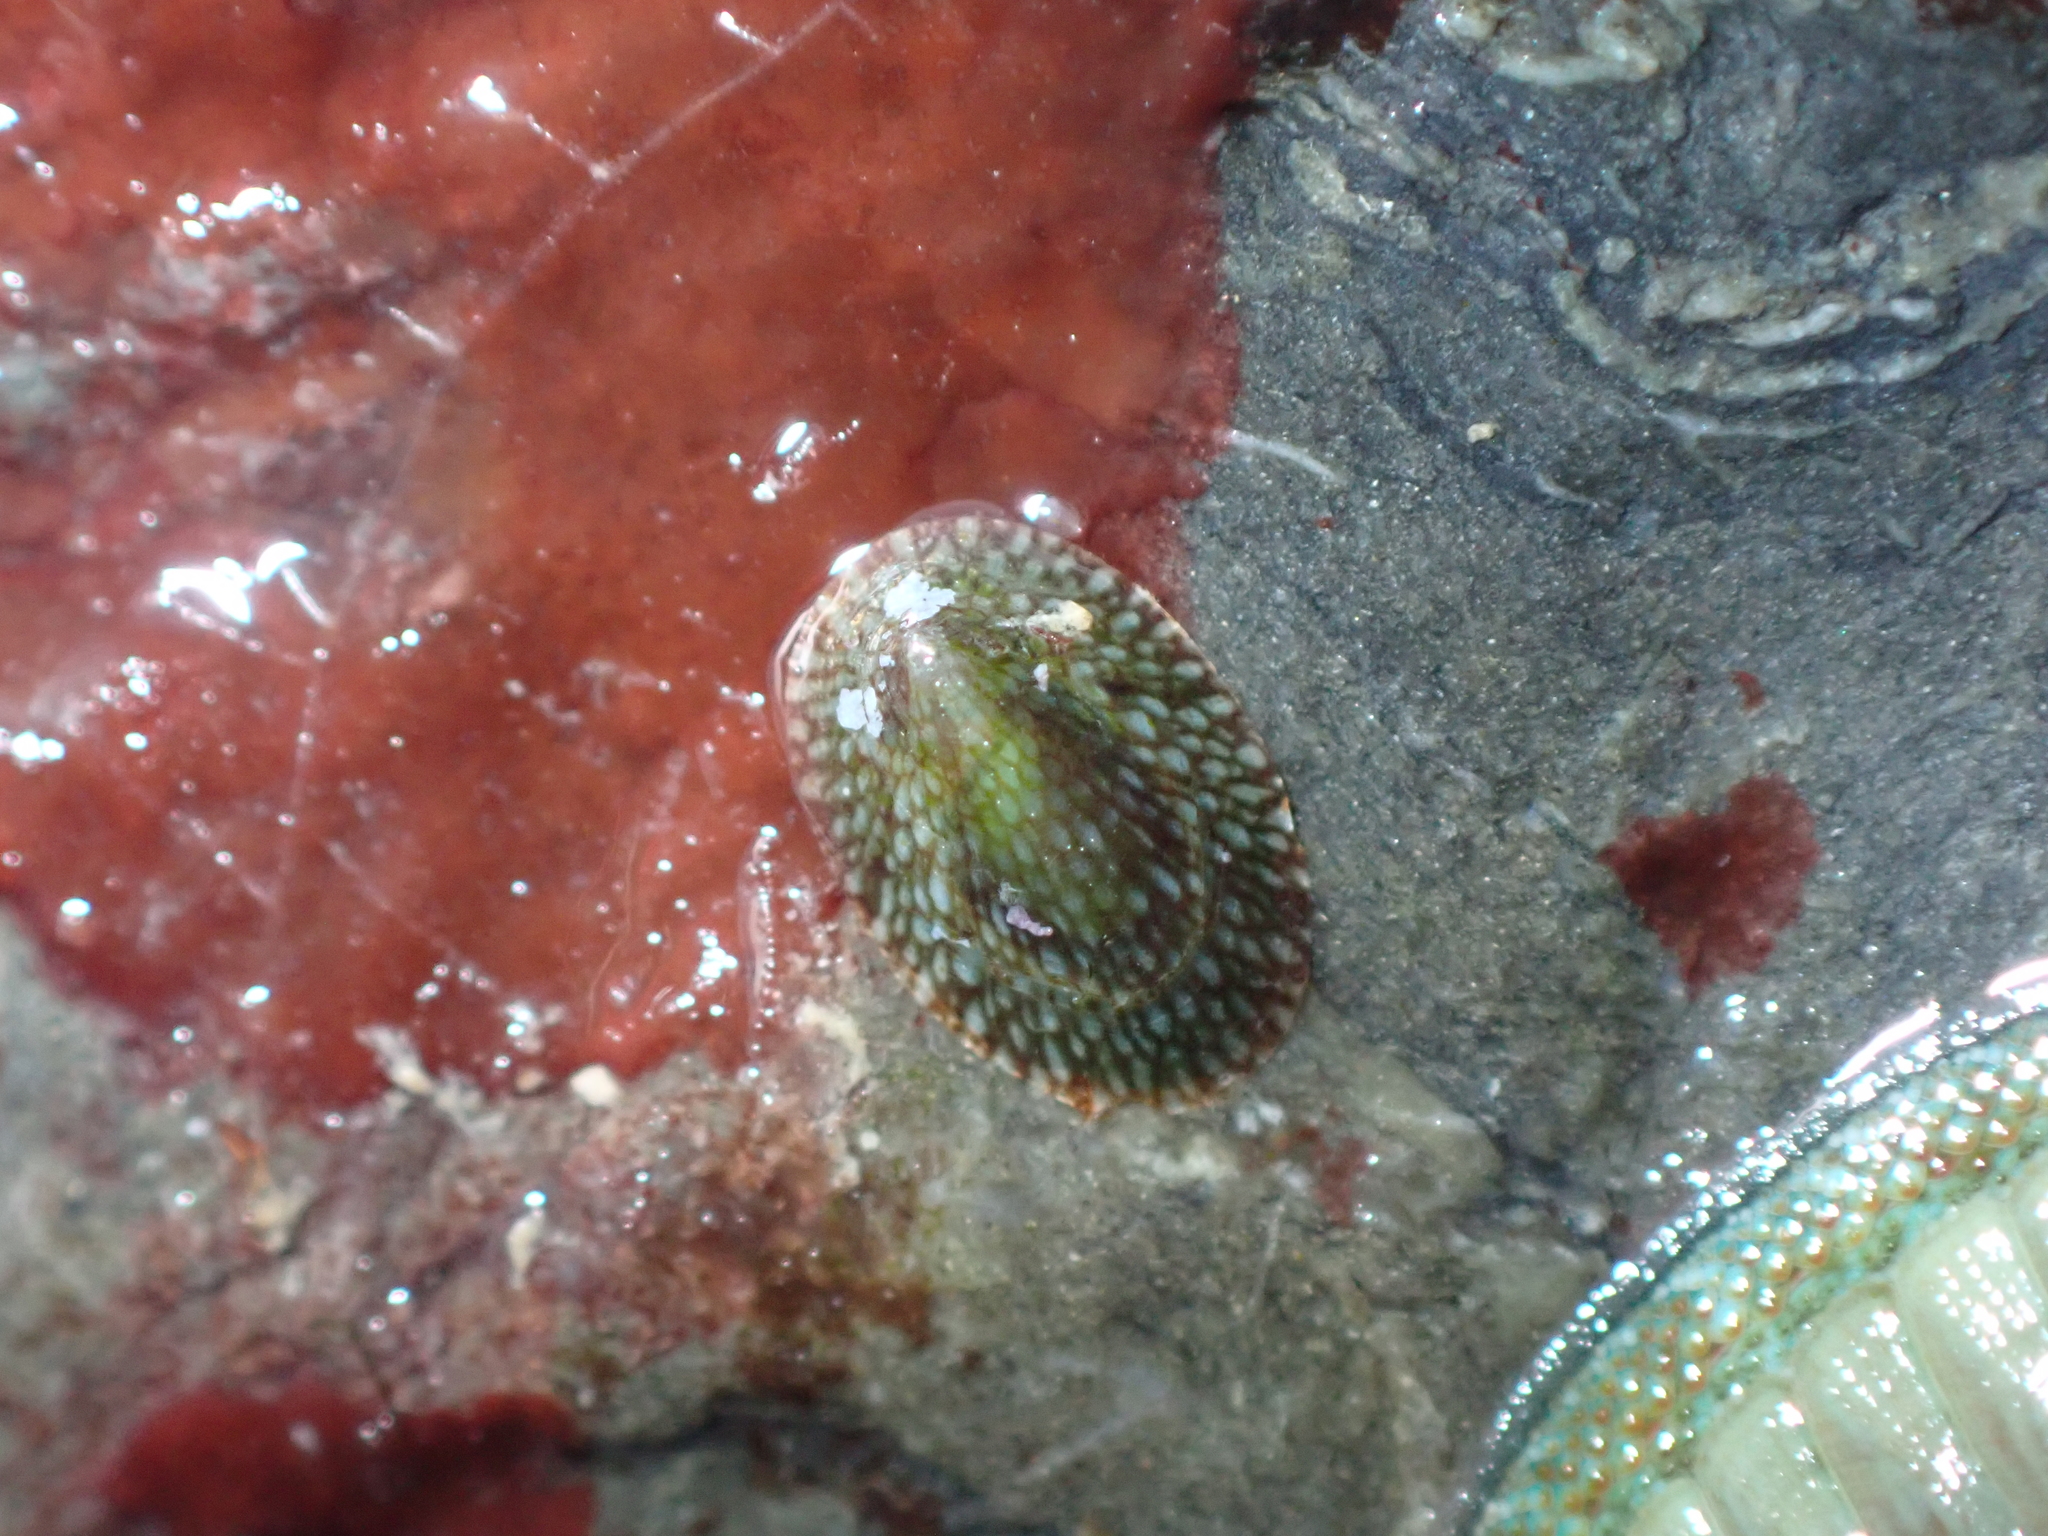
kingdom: Animalia
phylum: Mollusca
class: Gastropoda
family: Lottiidae
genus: Notoacmea
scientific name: Notoacmea
